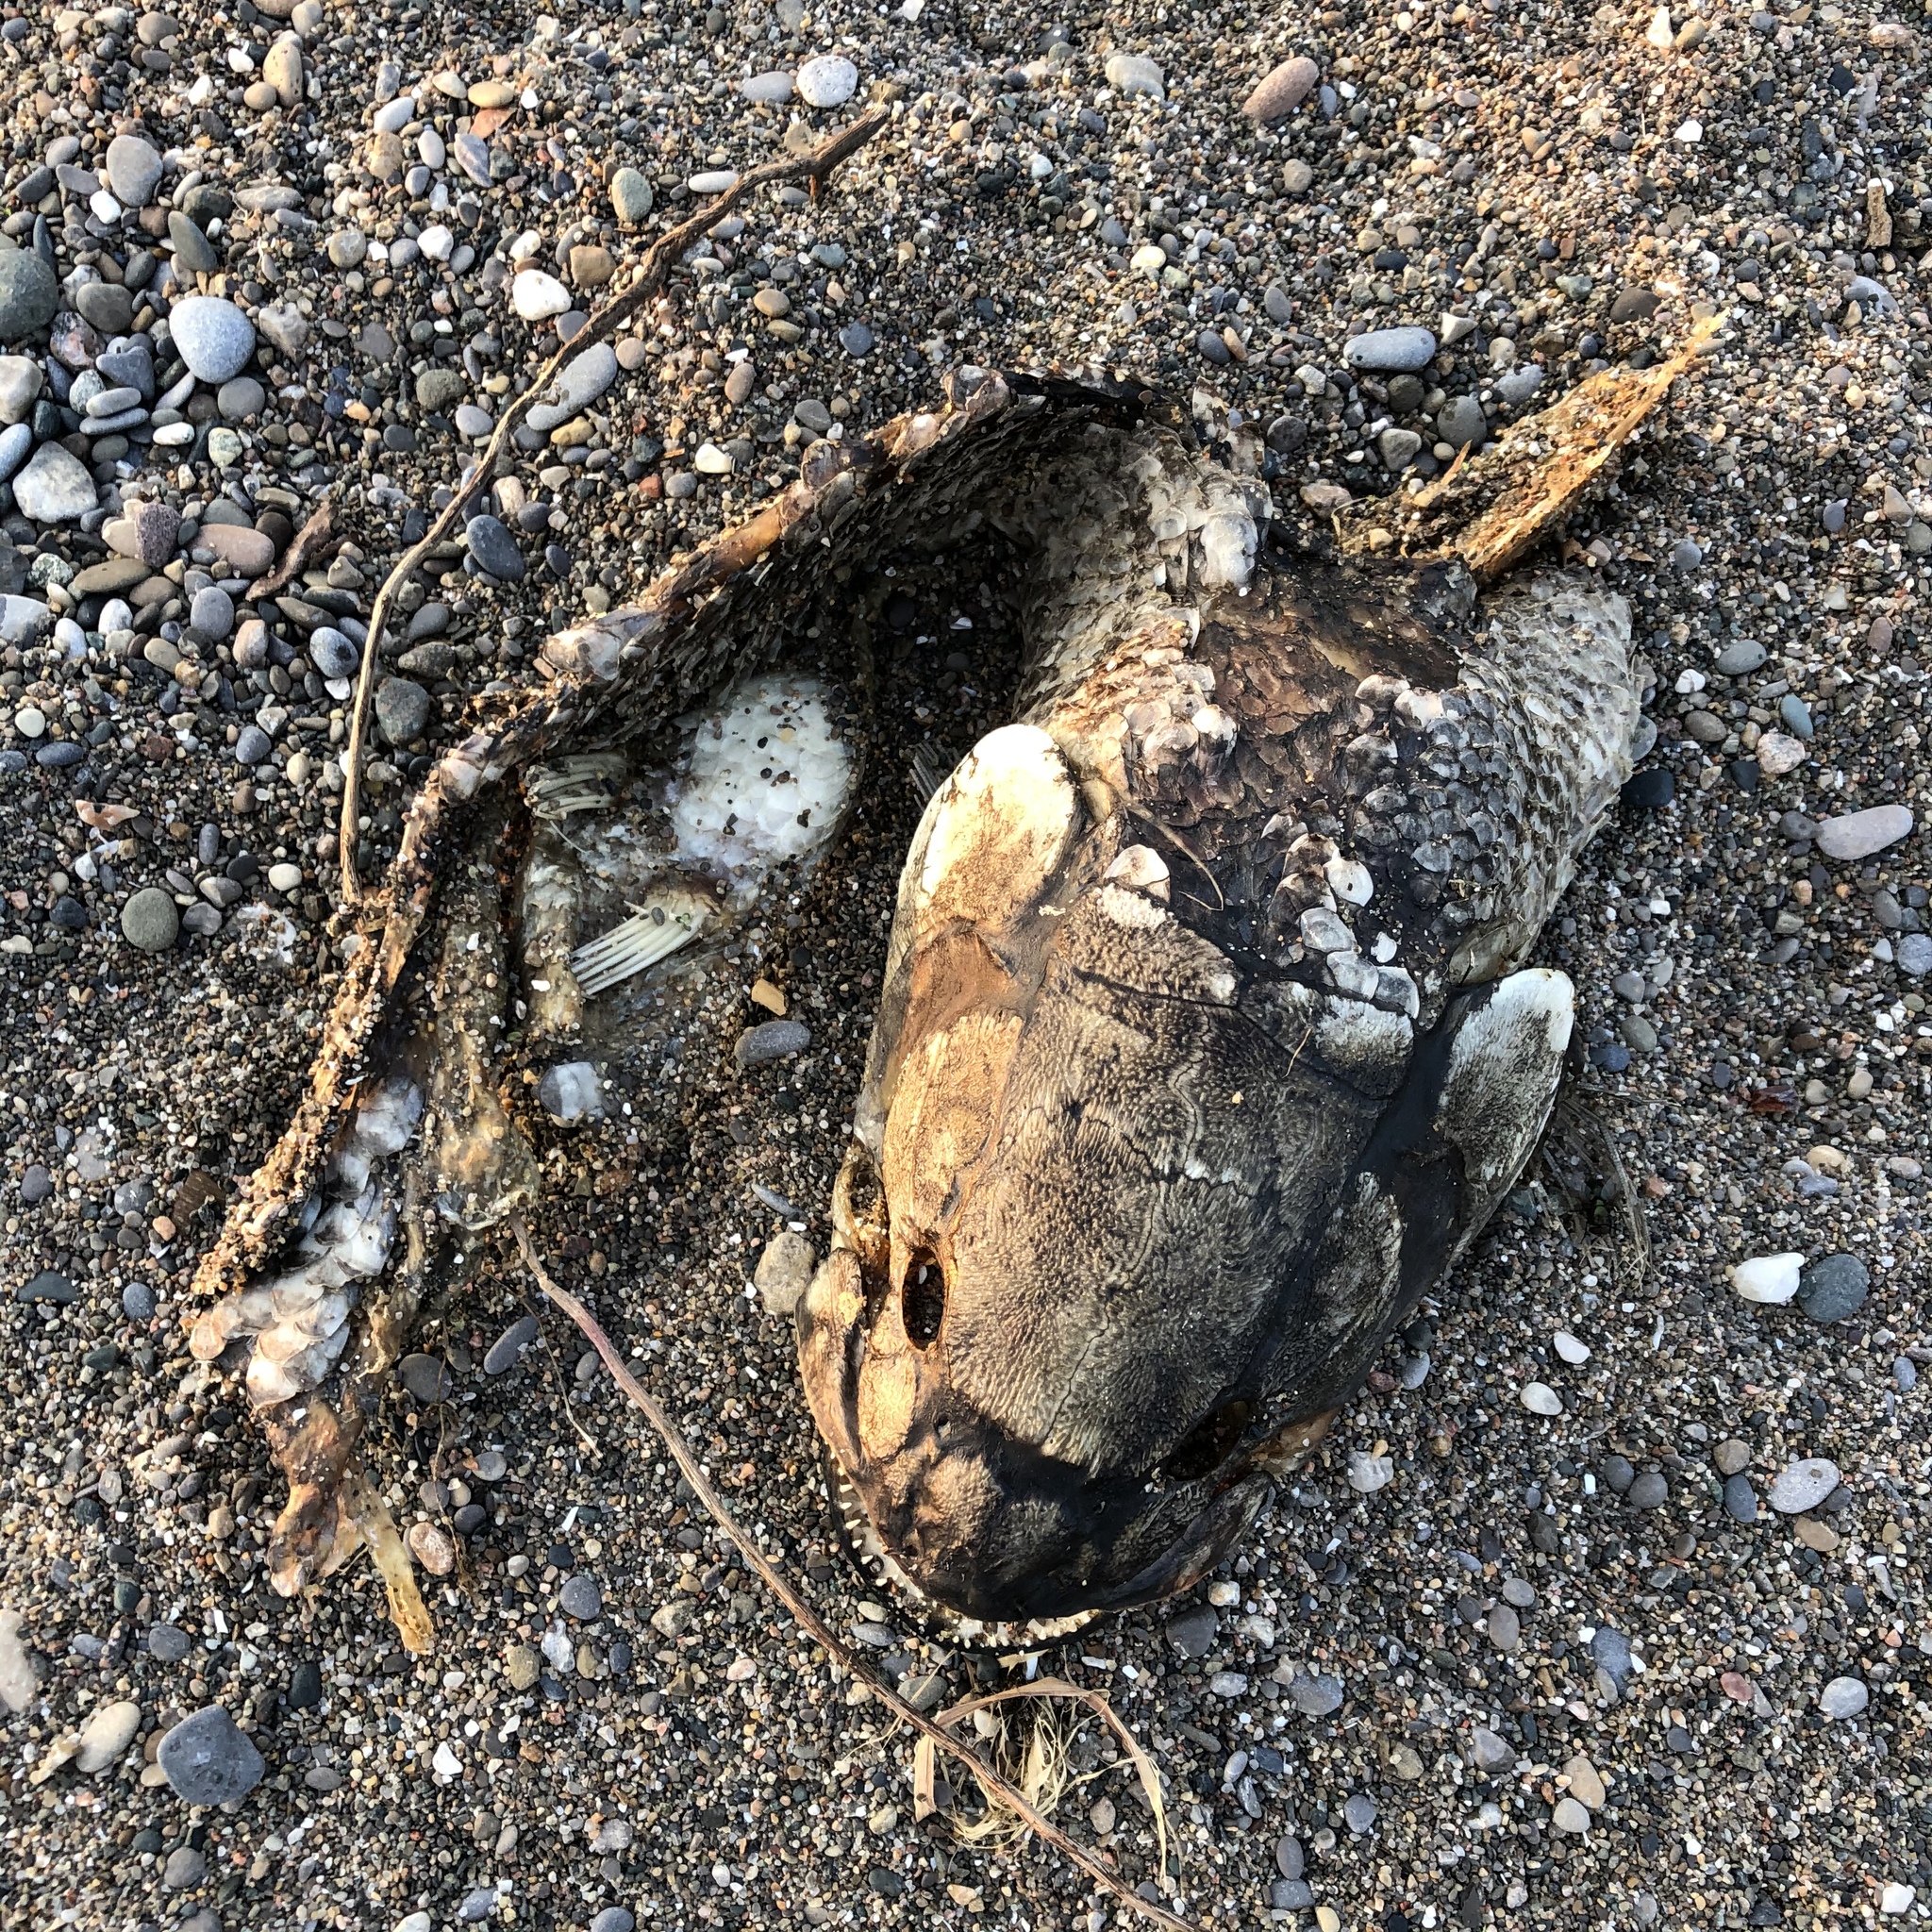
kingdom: Animalia
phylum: Chordata
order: Amiiformes
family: Amiidae
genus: Amia
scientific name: Amia calva
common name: Bowfin
